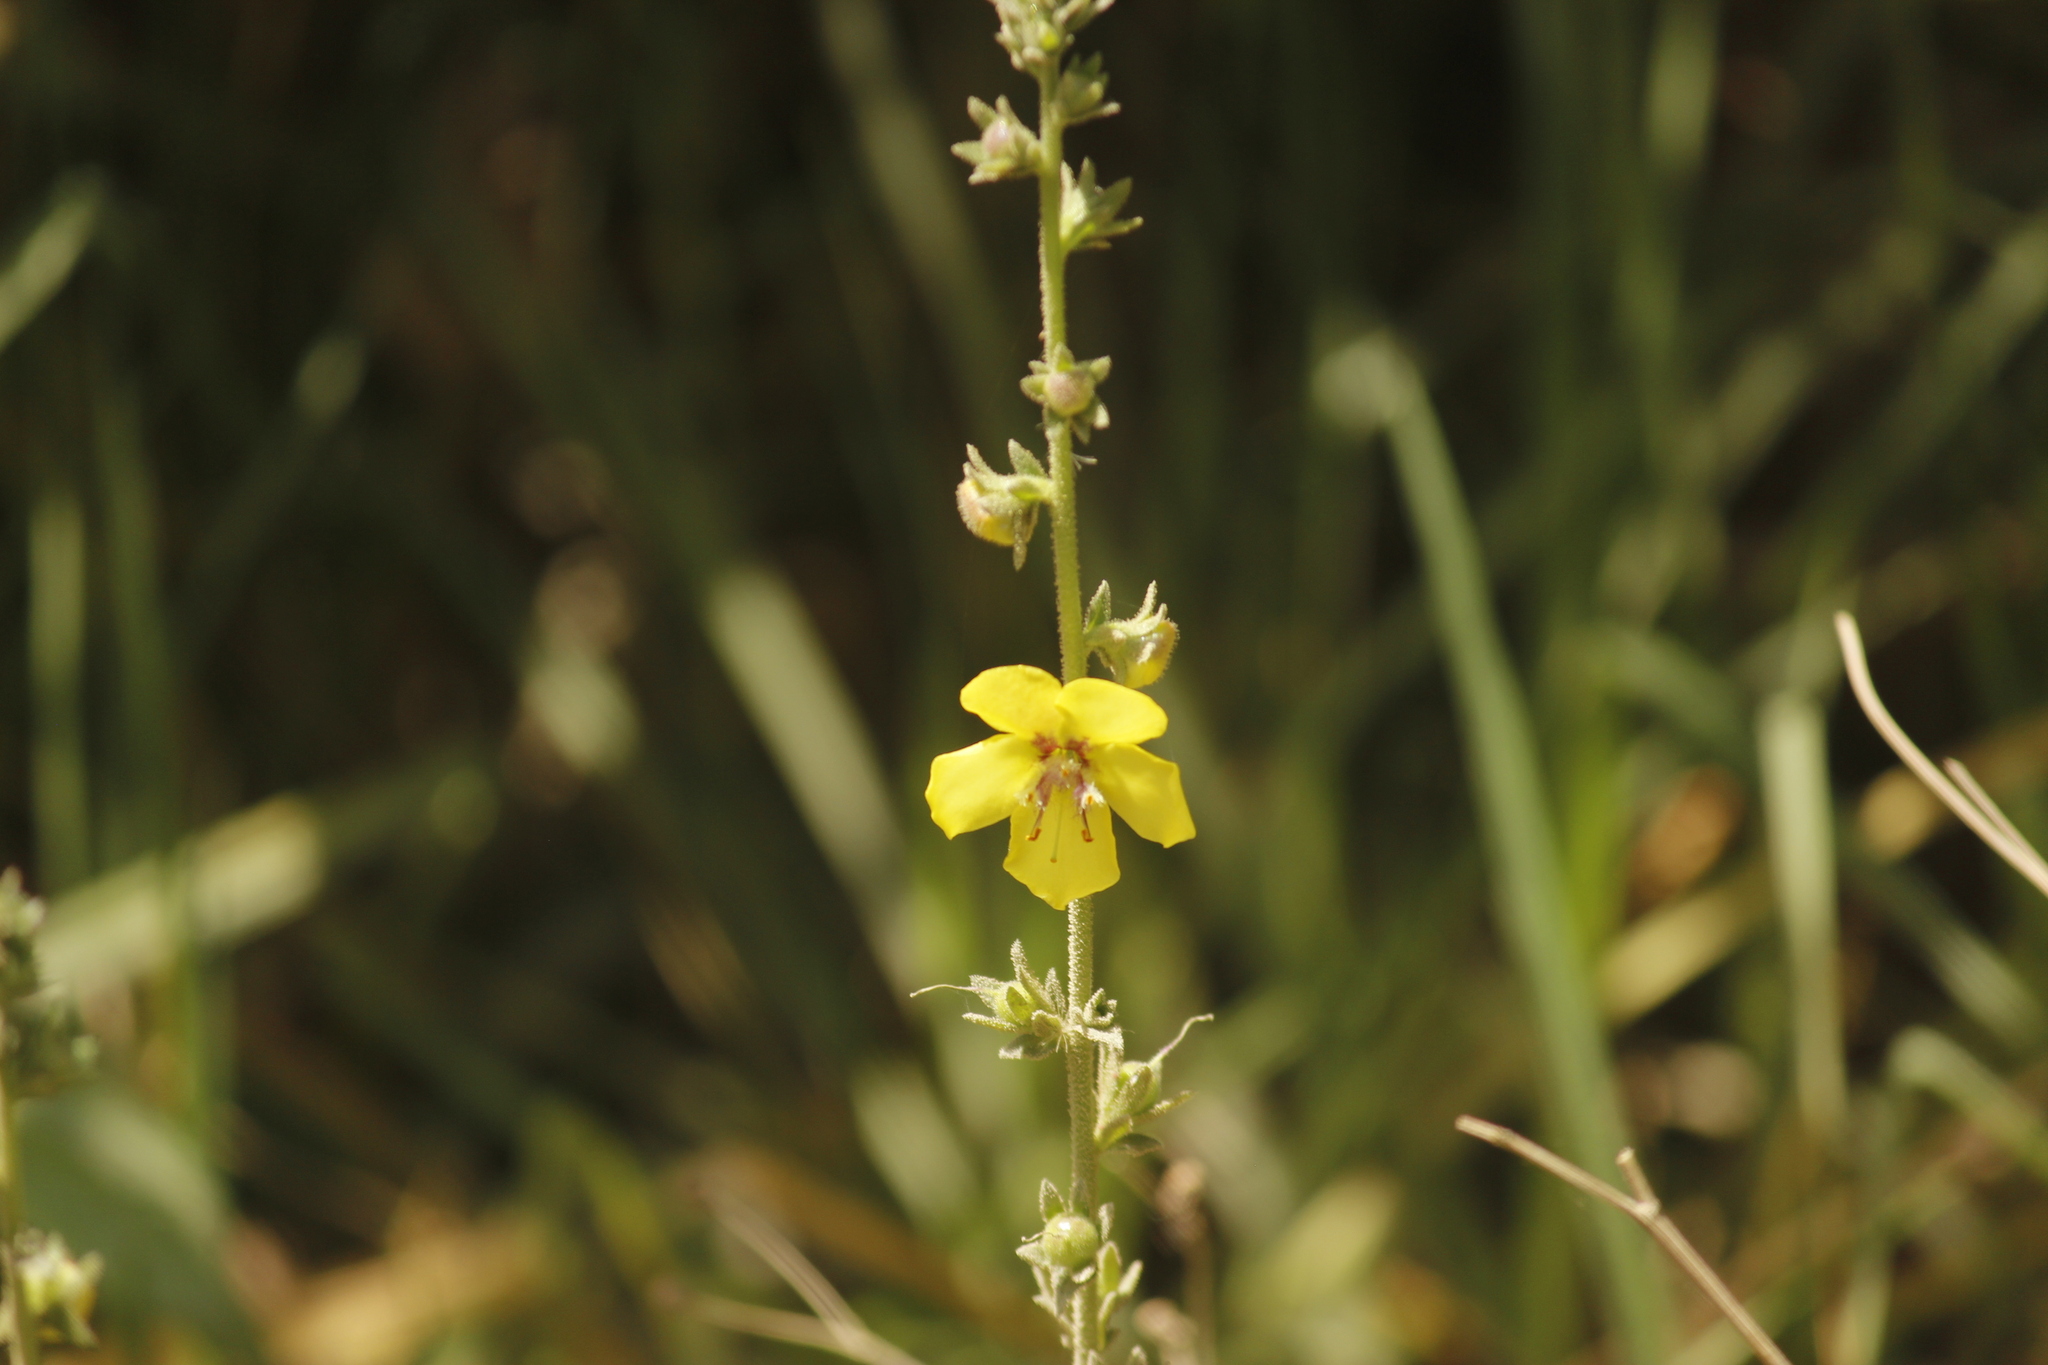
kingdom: Plantae
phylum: Tracheophyta
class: Magnoliopsida
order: Lamiales
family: Scrophulariaceae
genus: Verbascum
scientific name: Verbascum virgatum
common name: Twiggy mullein
